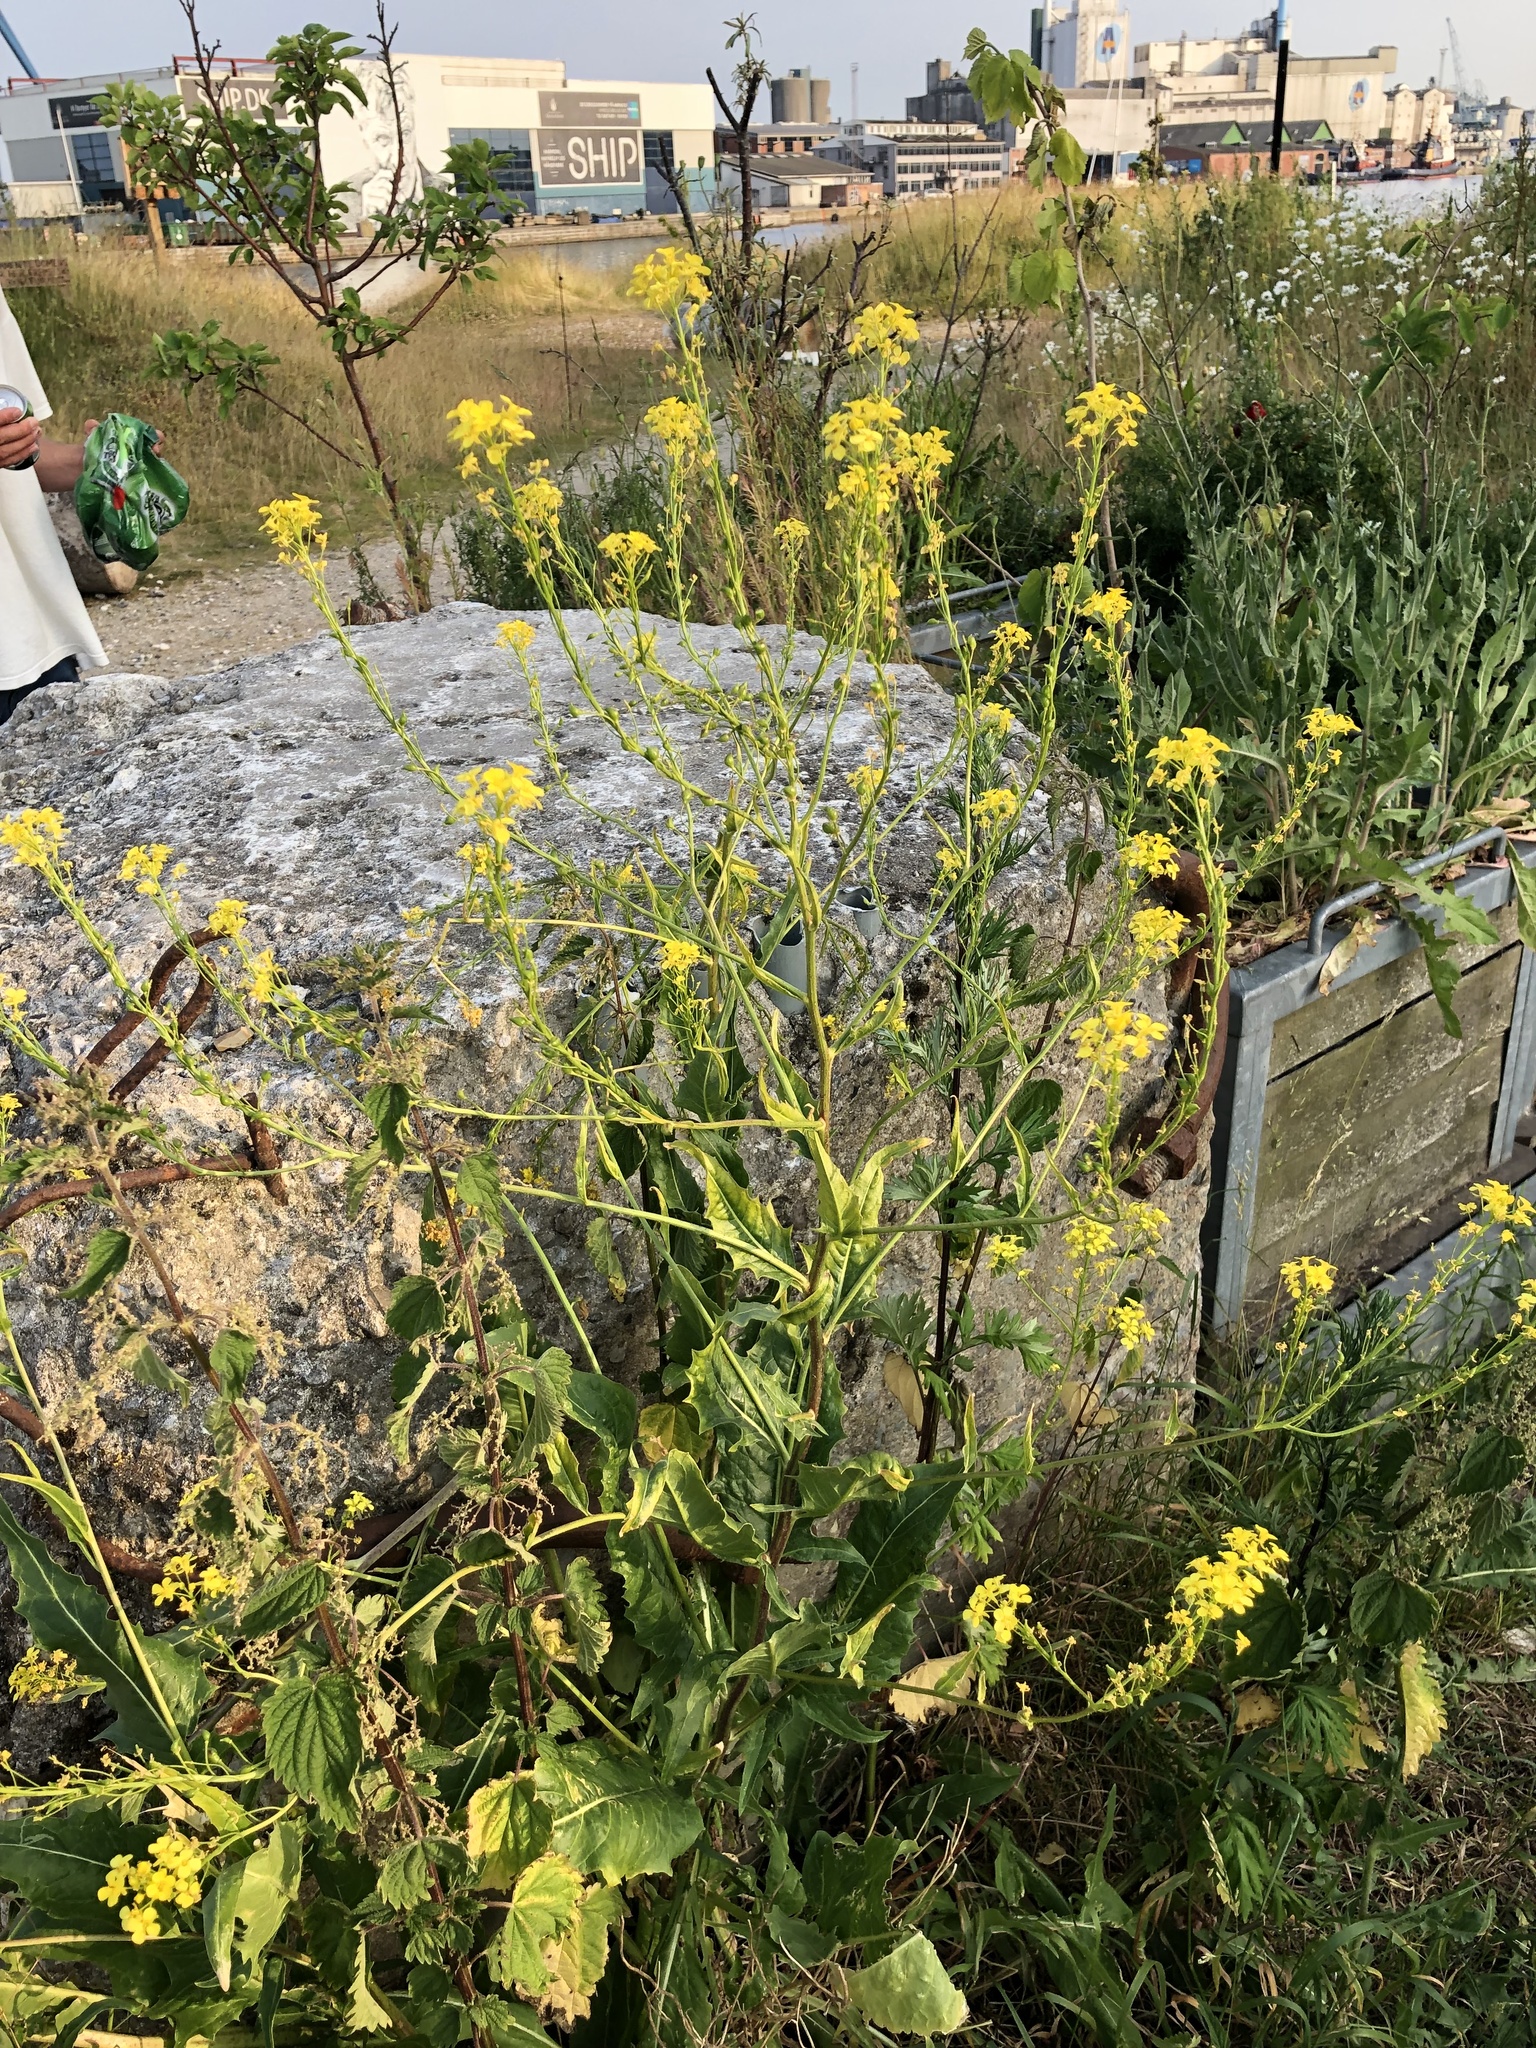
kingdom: Plantae
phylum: Tracheophyta
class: Magnoliopsida
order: Brassicales
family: Brassicaceae
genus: Bunias
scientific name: Bunias orientalis
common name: Warty-cabbage
